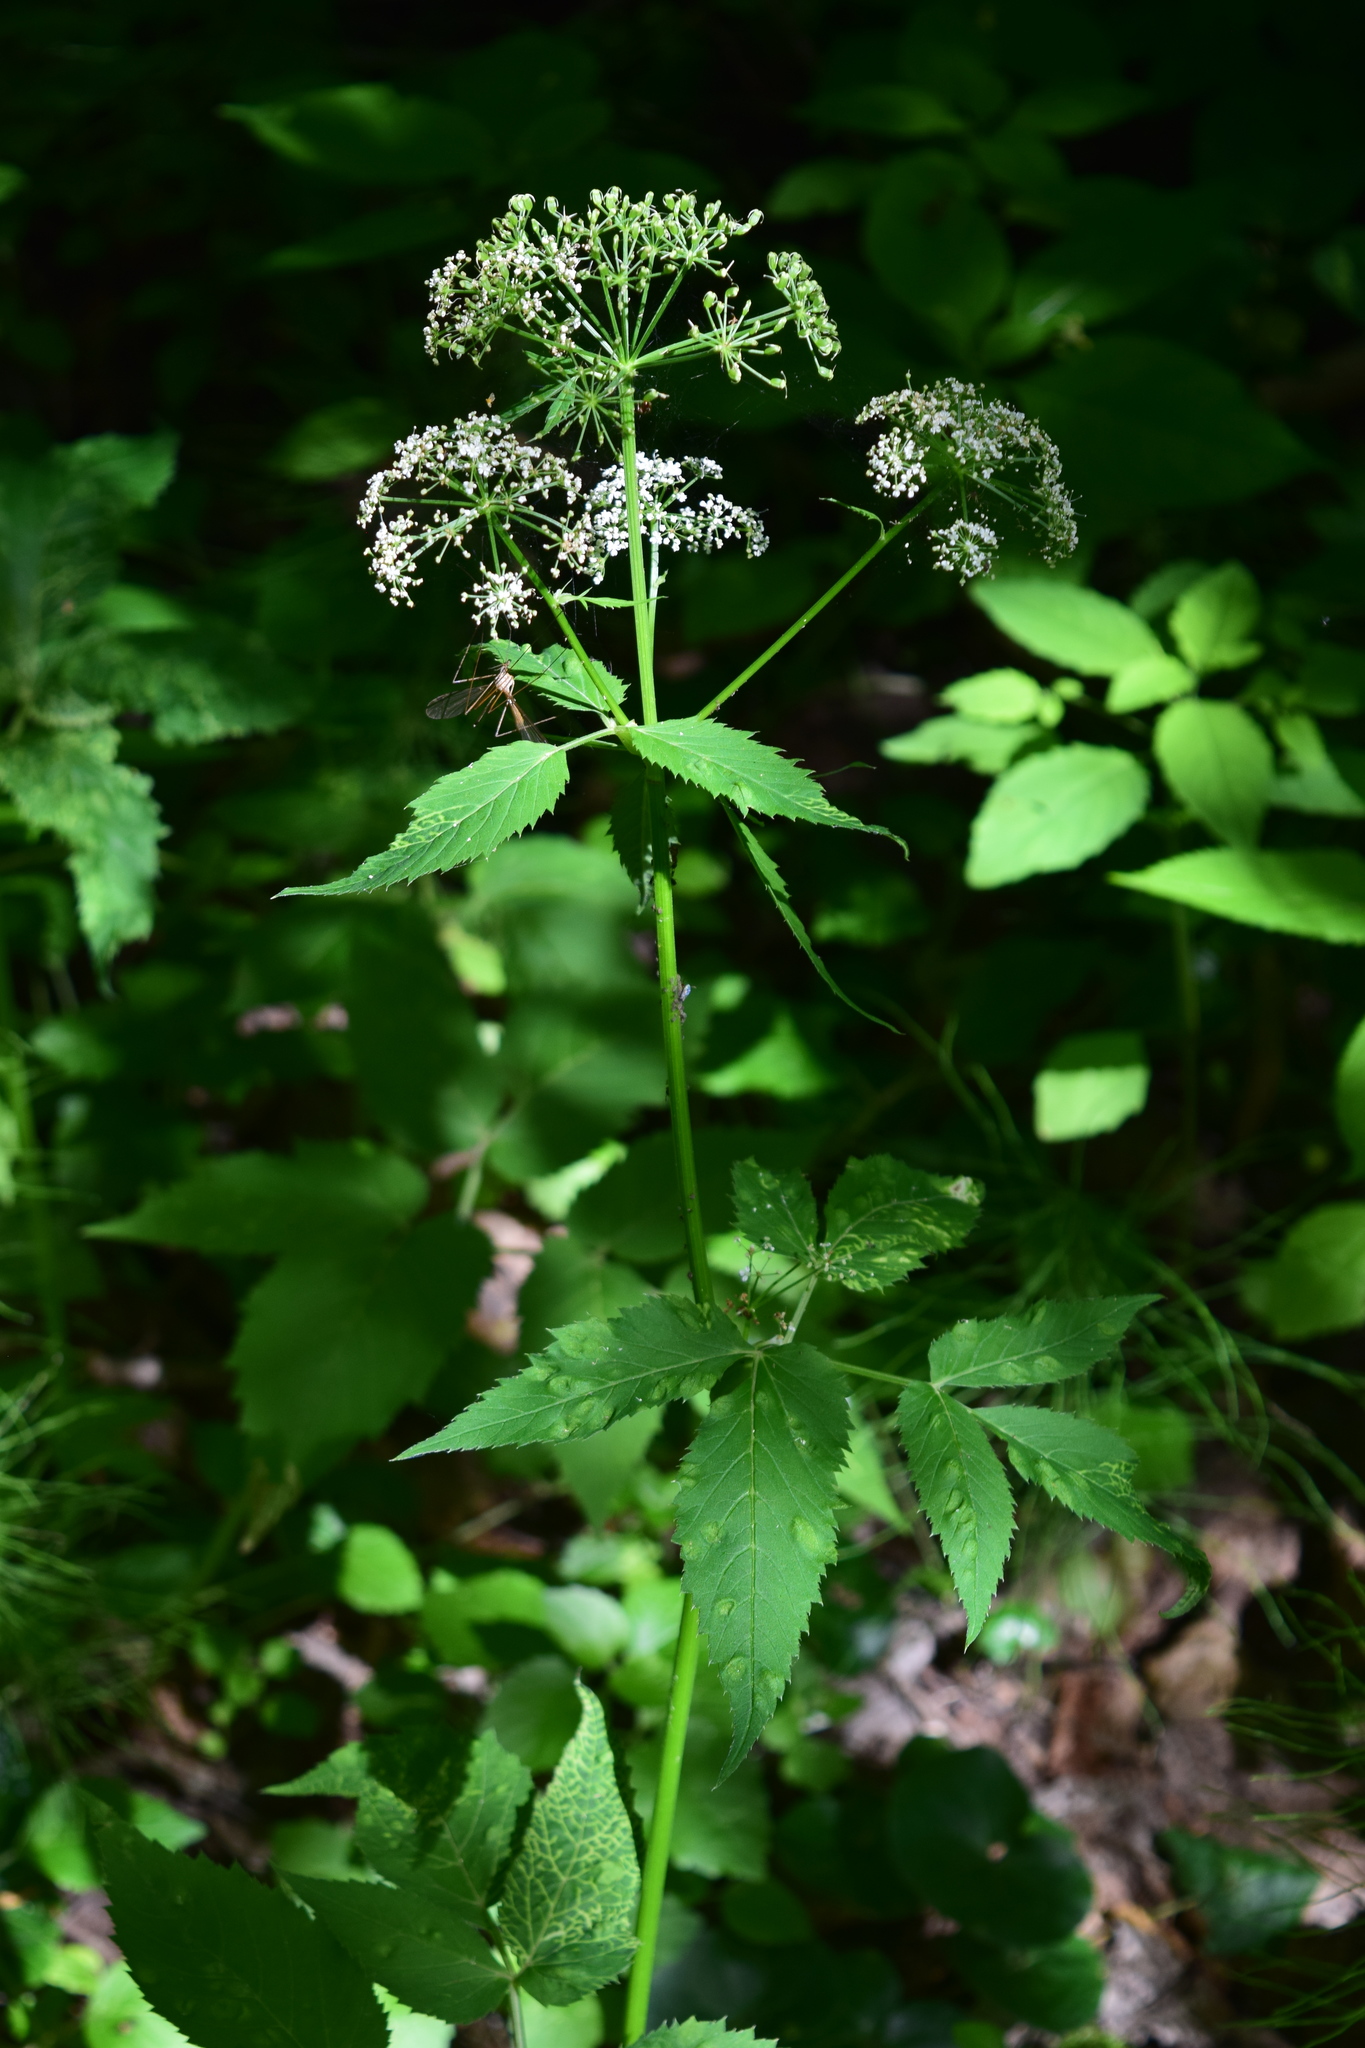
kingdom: Plantae
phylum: Tracheophyta
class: Magnoliopsida
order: Apiales
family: Apiaceae
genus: Aegopodium
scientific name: Aegopodium podagraria
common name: Ground-elder
